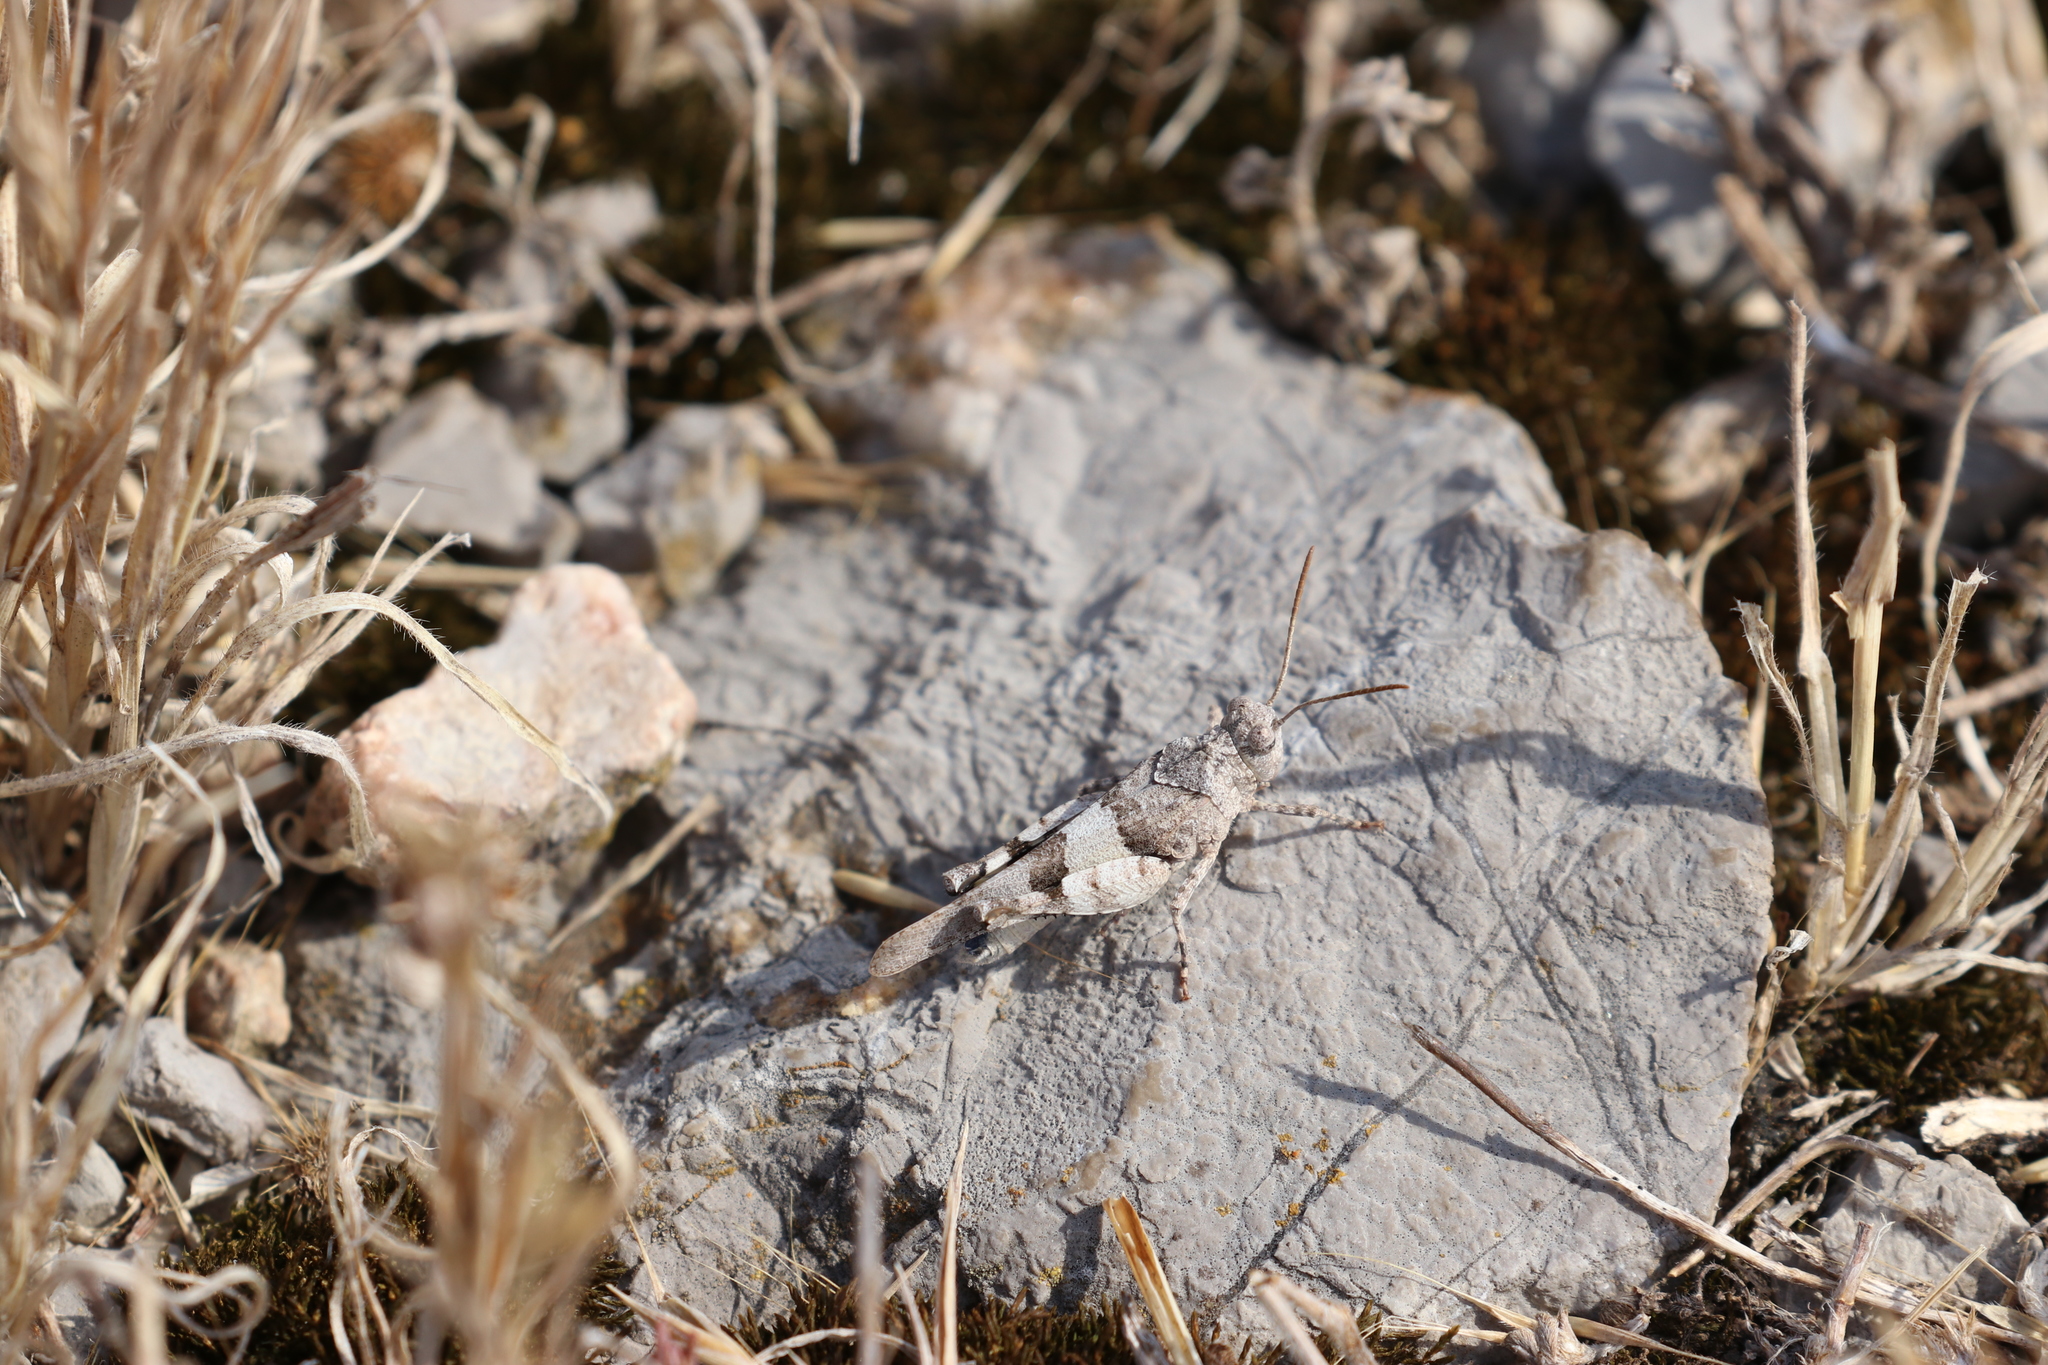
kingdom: Animalia
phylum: Arthropoda
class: Insecta
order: Orthoptera
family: Acrididae
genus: Sphingonotus
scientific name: Sphingonotus caerulans
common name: Blue-winged locust
